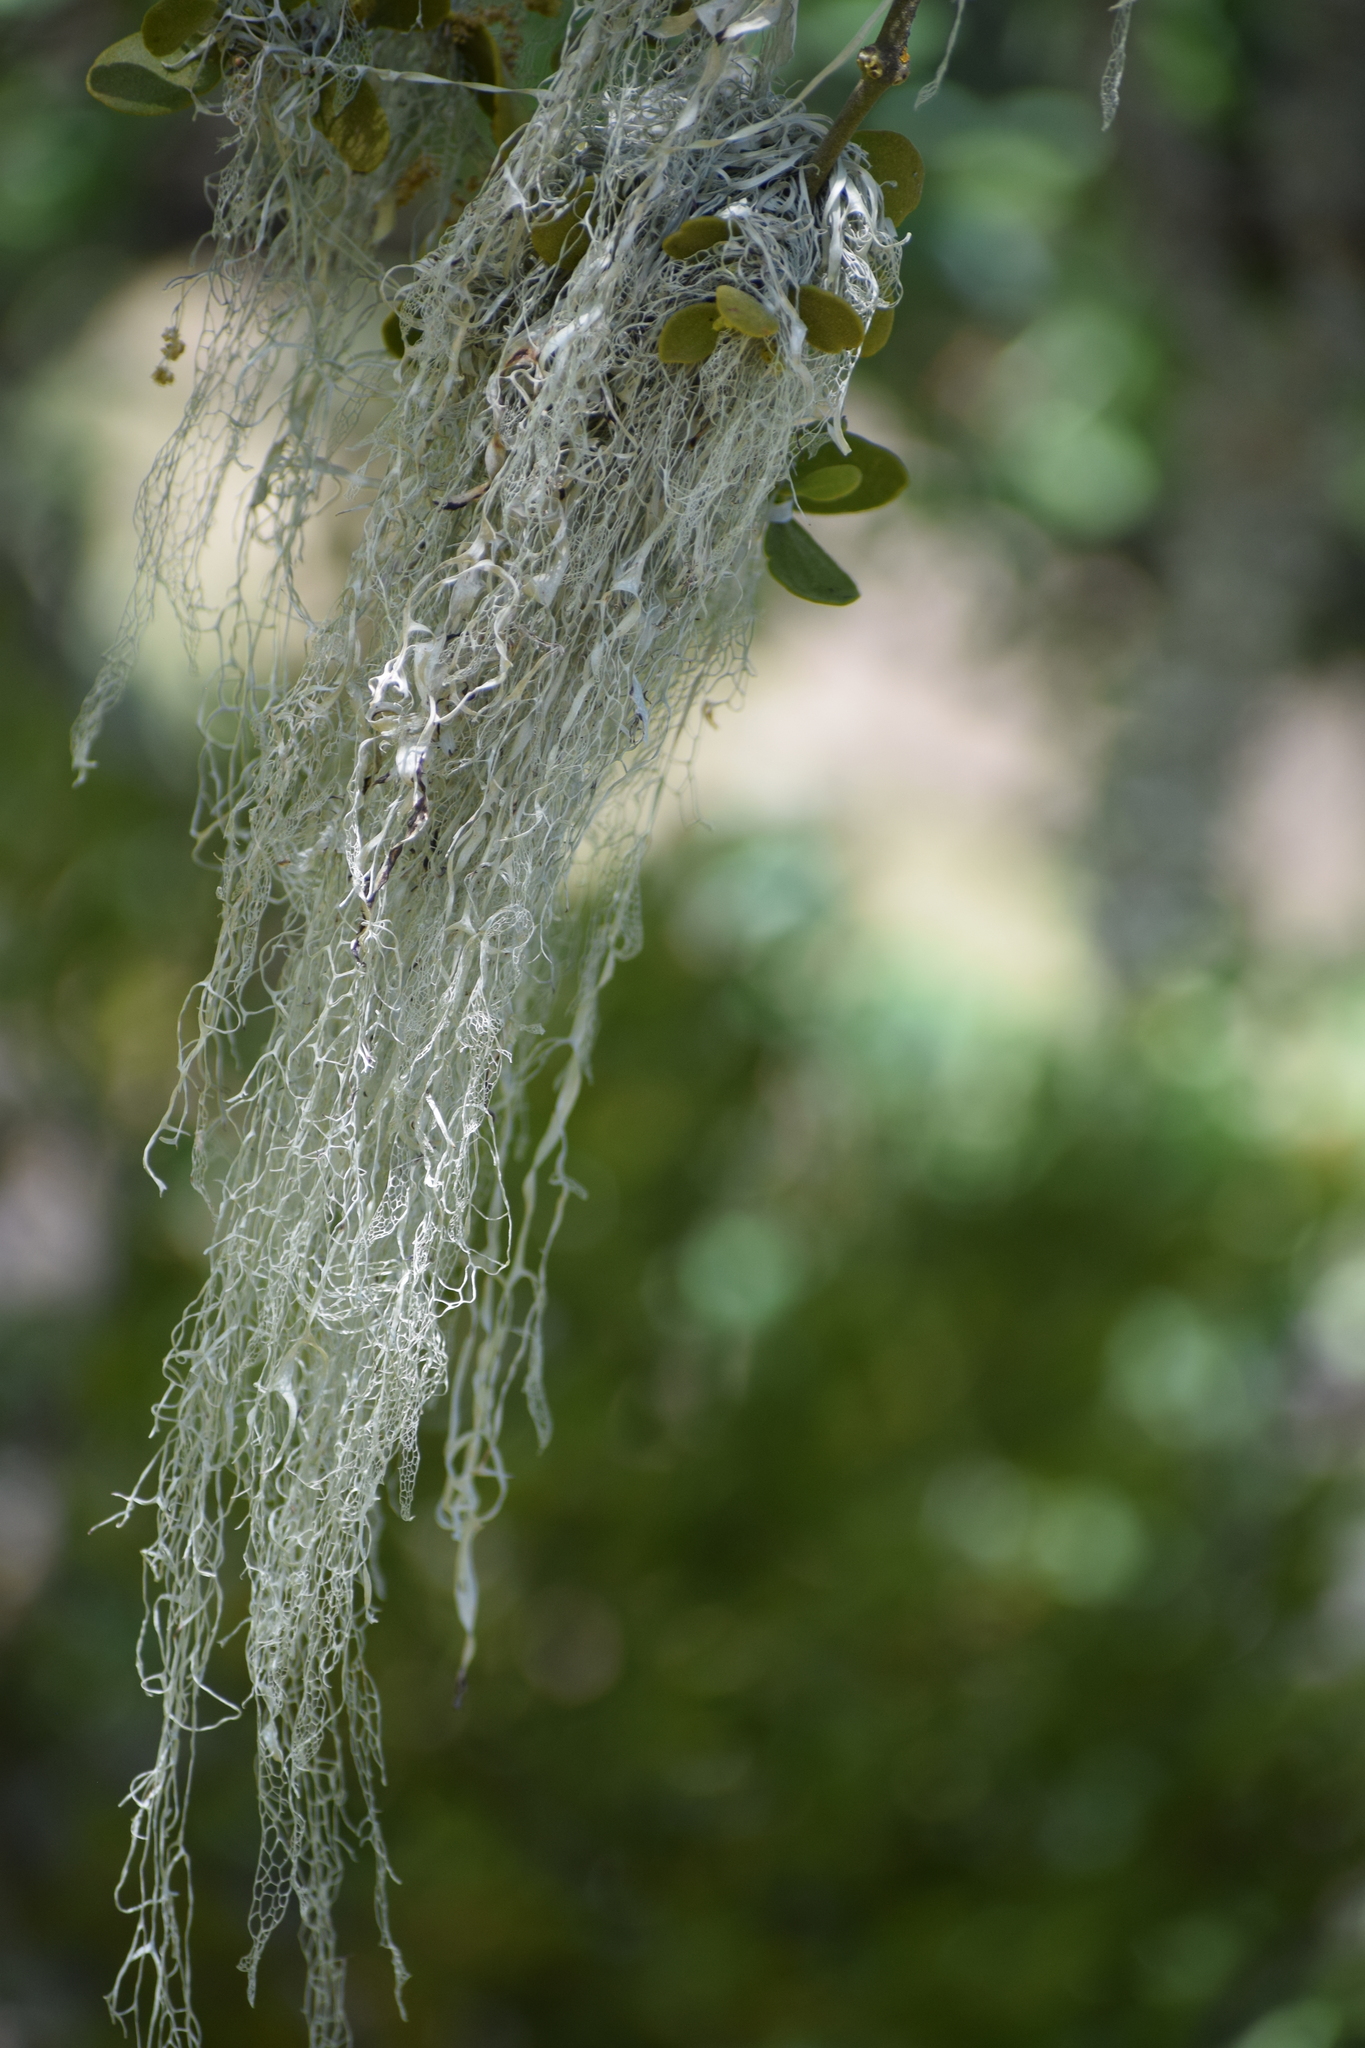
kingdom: Fungi
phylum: Ascomycota
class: Lecanoromycetes
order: Lecanorales
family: Ramalinaceae
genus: Ramalina
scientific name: Ramalina menziesii
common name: Lace lichen
